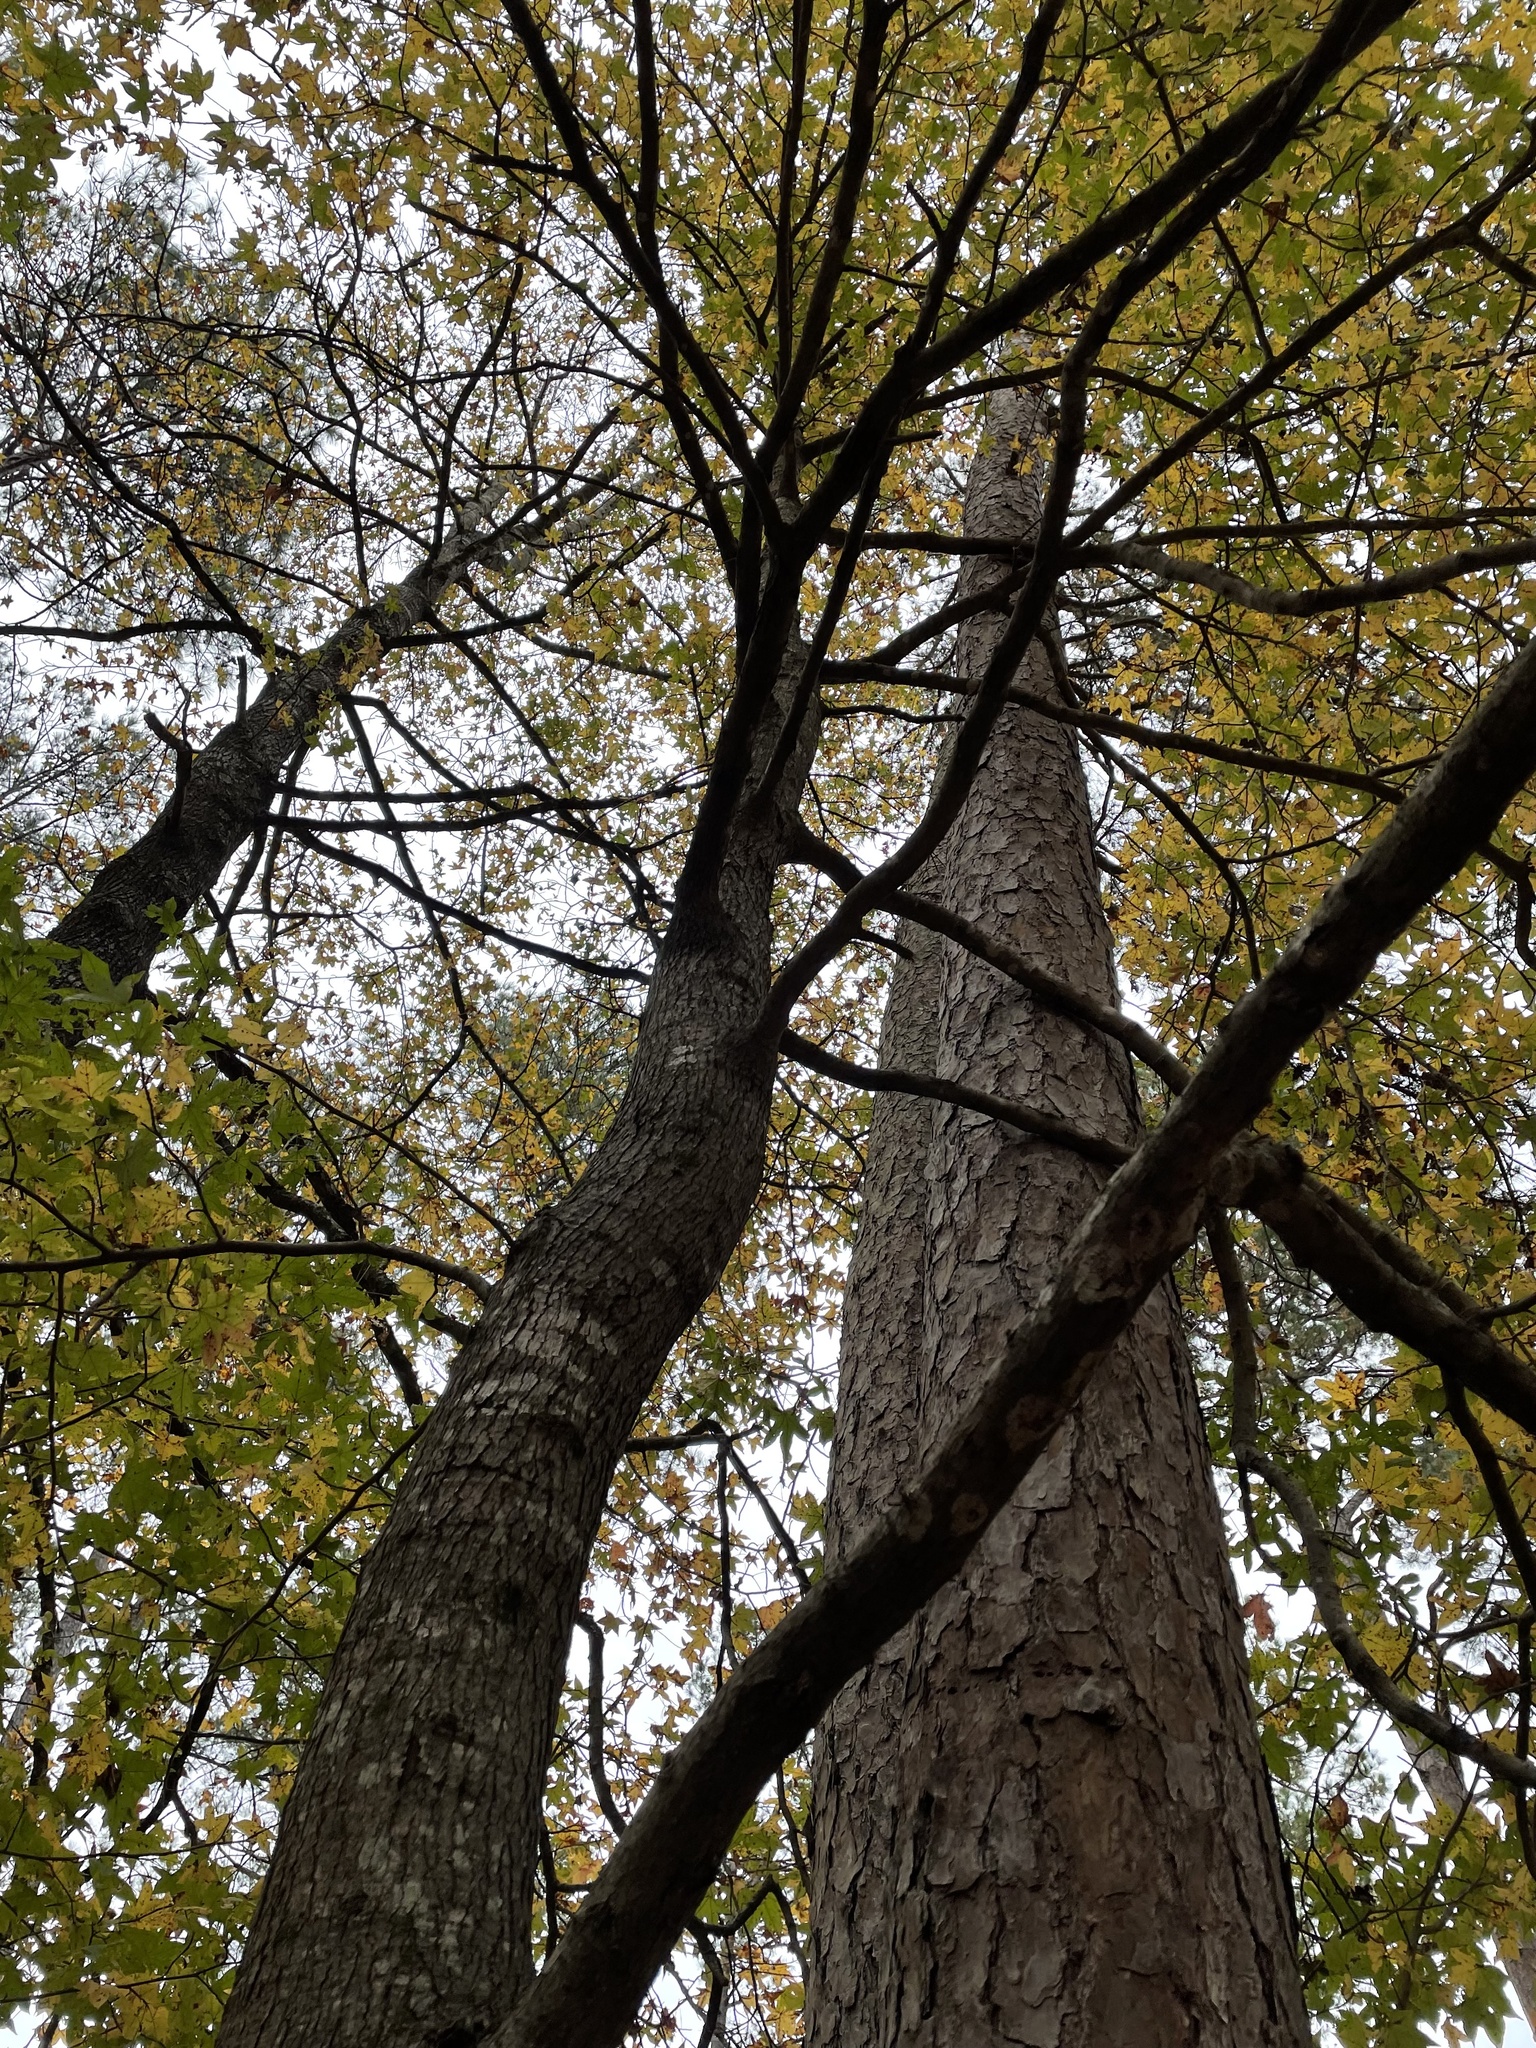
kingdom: Plantae
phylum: Tracheophyta
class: Magnoliopsida
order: Saxifragales
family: Altingiaceae
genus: Liquidambar
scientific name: Liquidambar styraciflua
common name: Sweet gum
